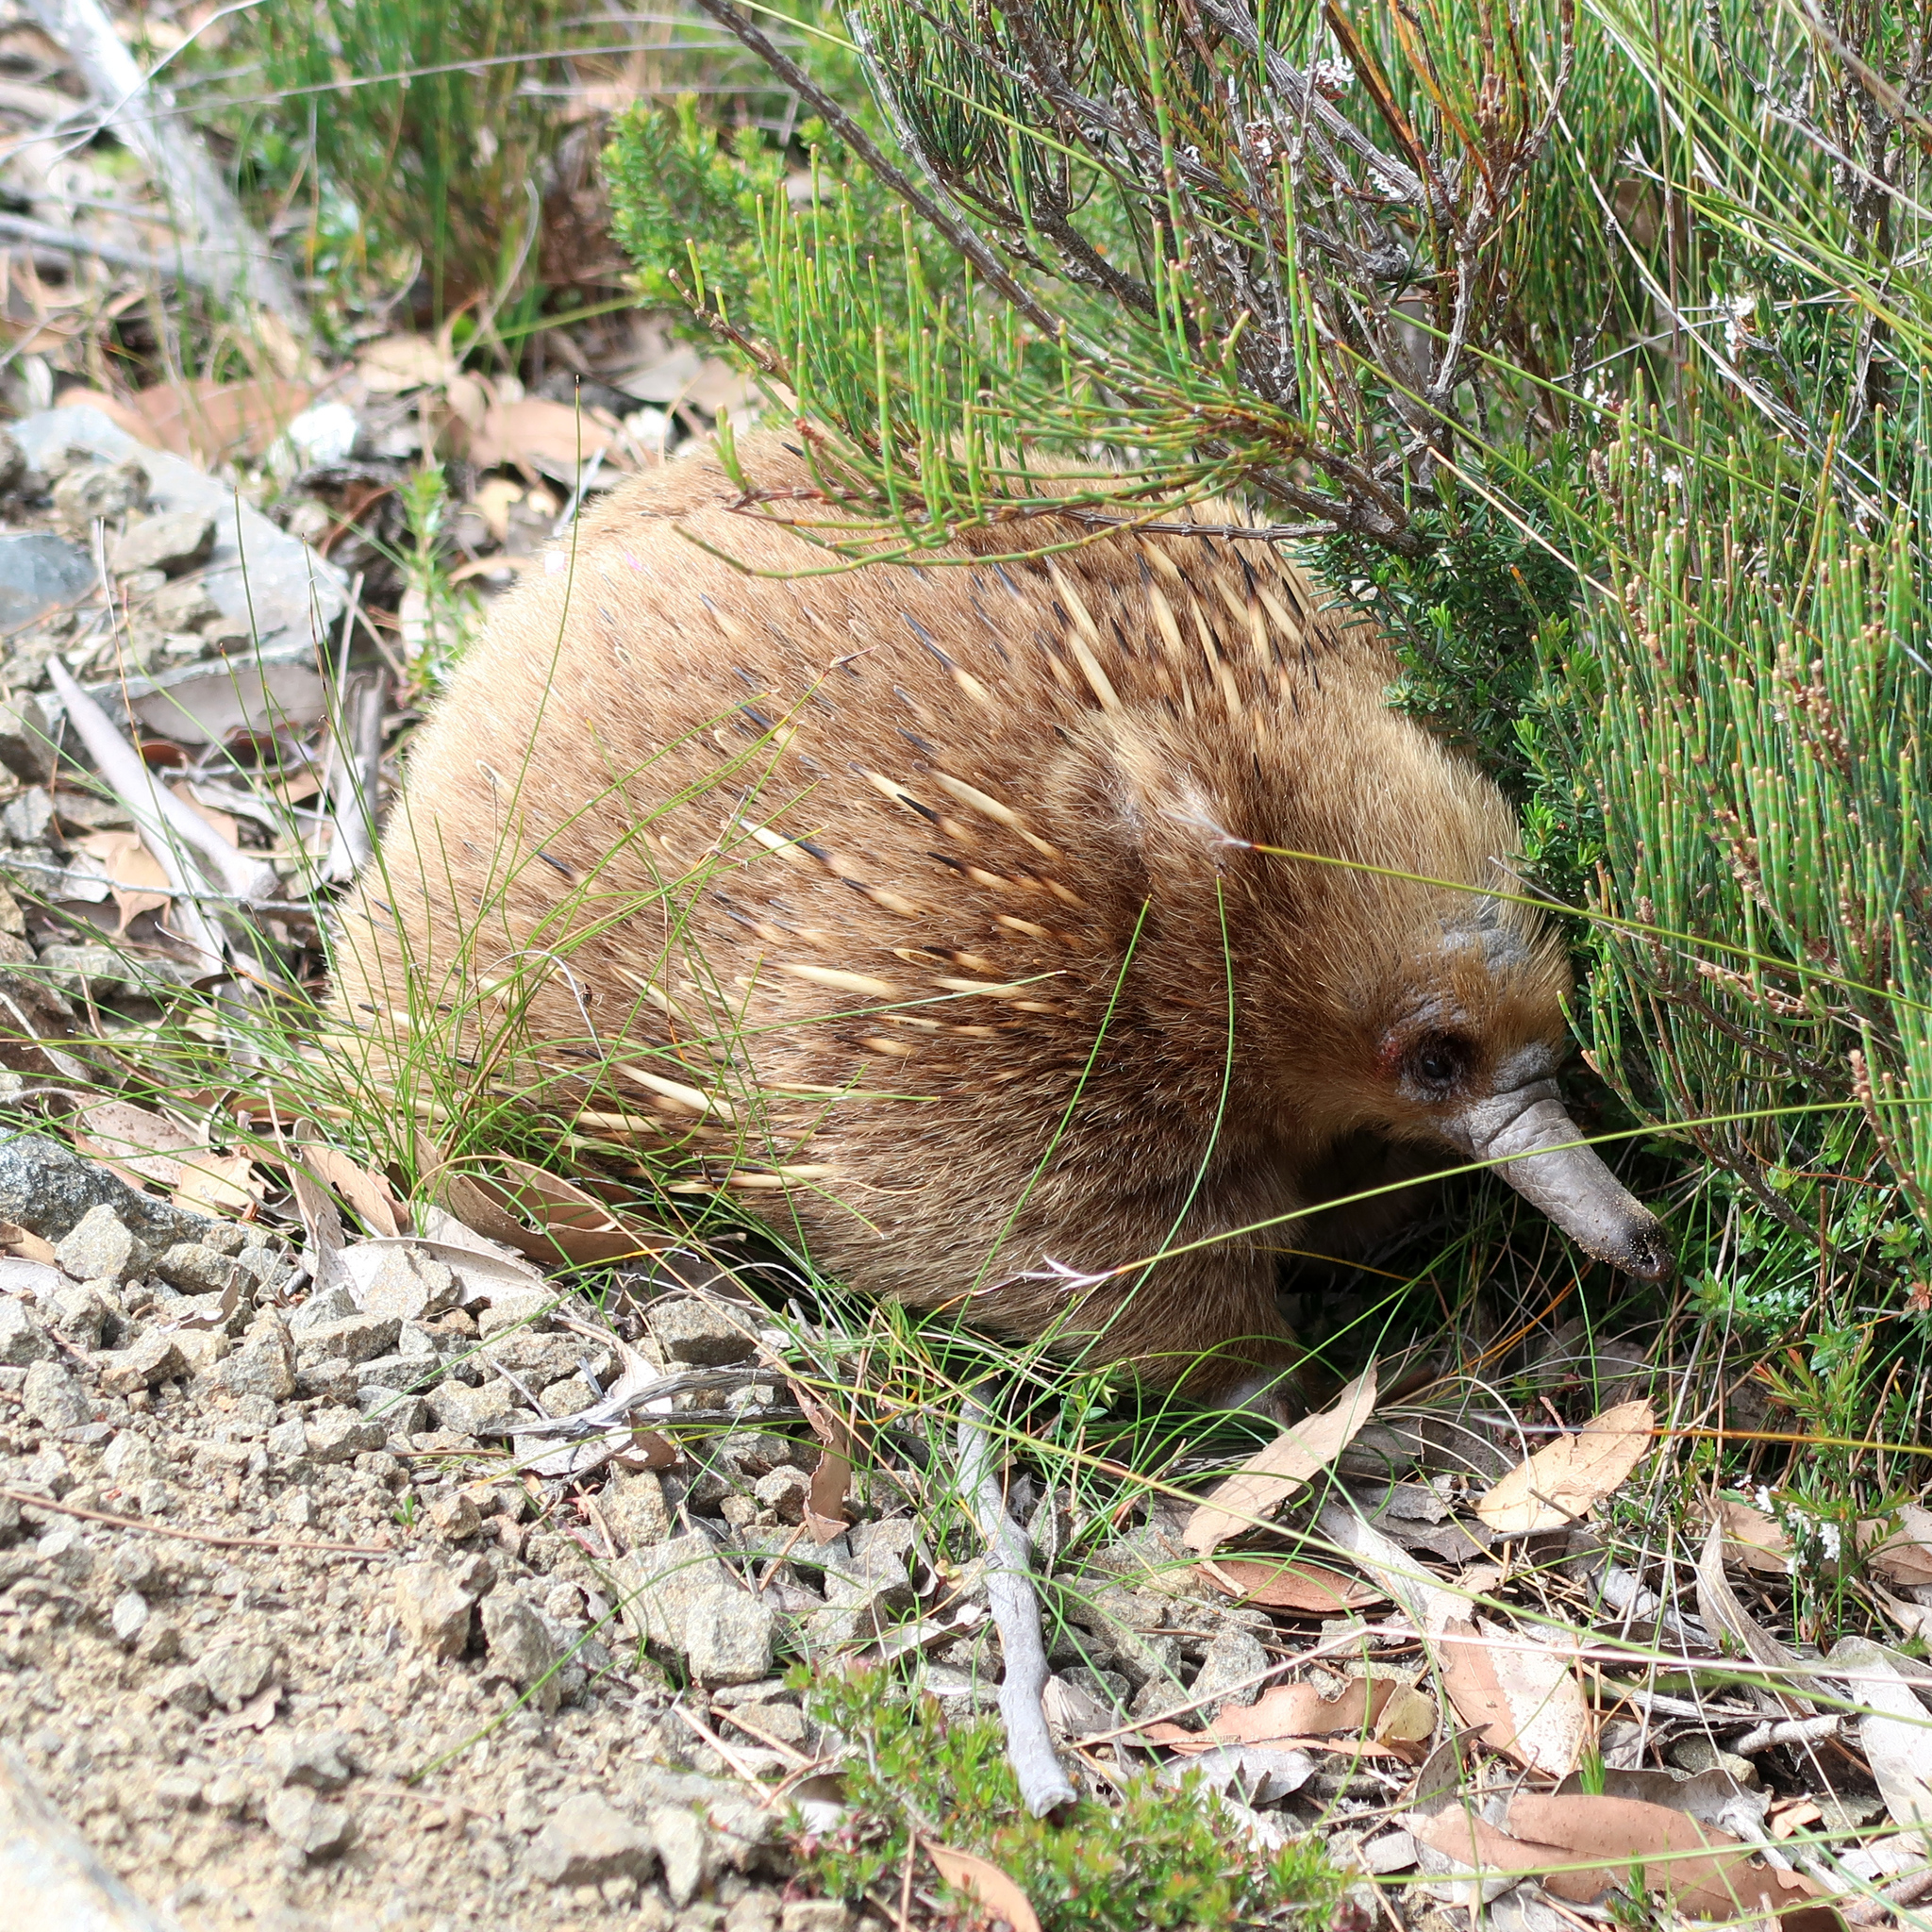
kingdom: Animalia
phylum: Chordata
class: Mammalia
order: Monotremata
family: Tachyglossidae
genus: Tachyglossus
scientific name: Tachyglossus aculeatus
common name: Short-beaked echidna
